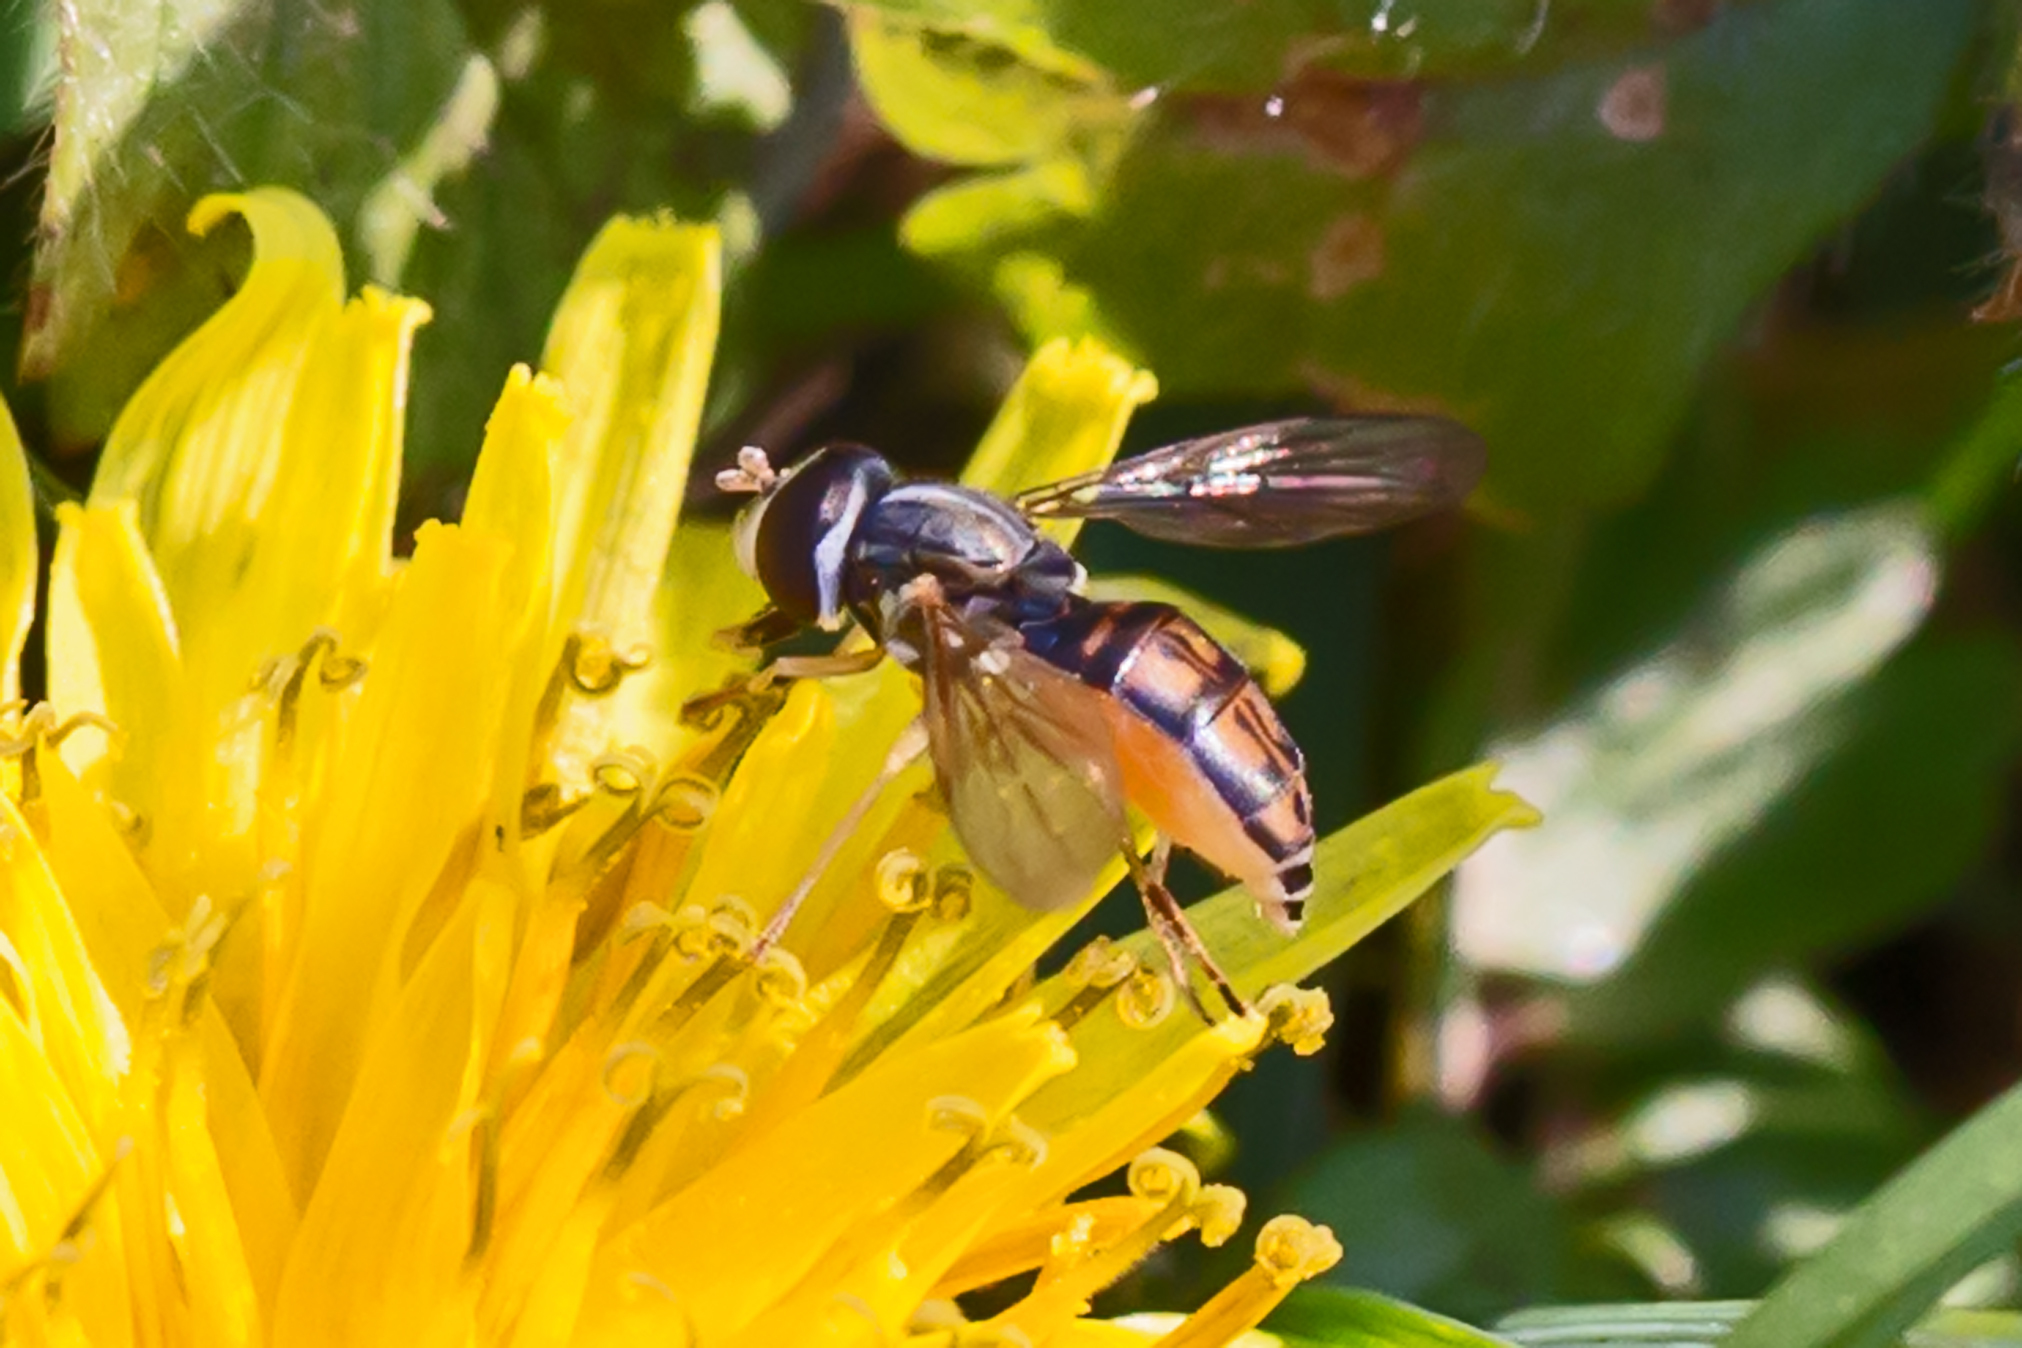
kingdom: Animalia
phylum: Arthropoda
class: Insecta
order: Diptera
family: Syrphidae
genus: Toxomerus
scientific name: Toxomerus marginatus
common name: Syrphid fly
